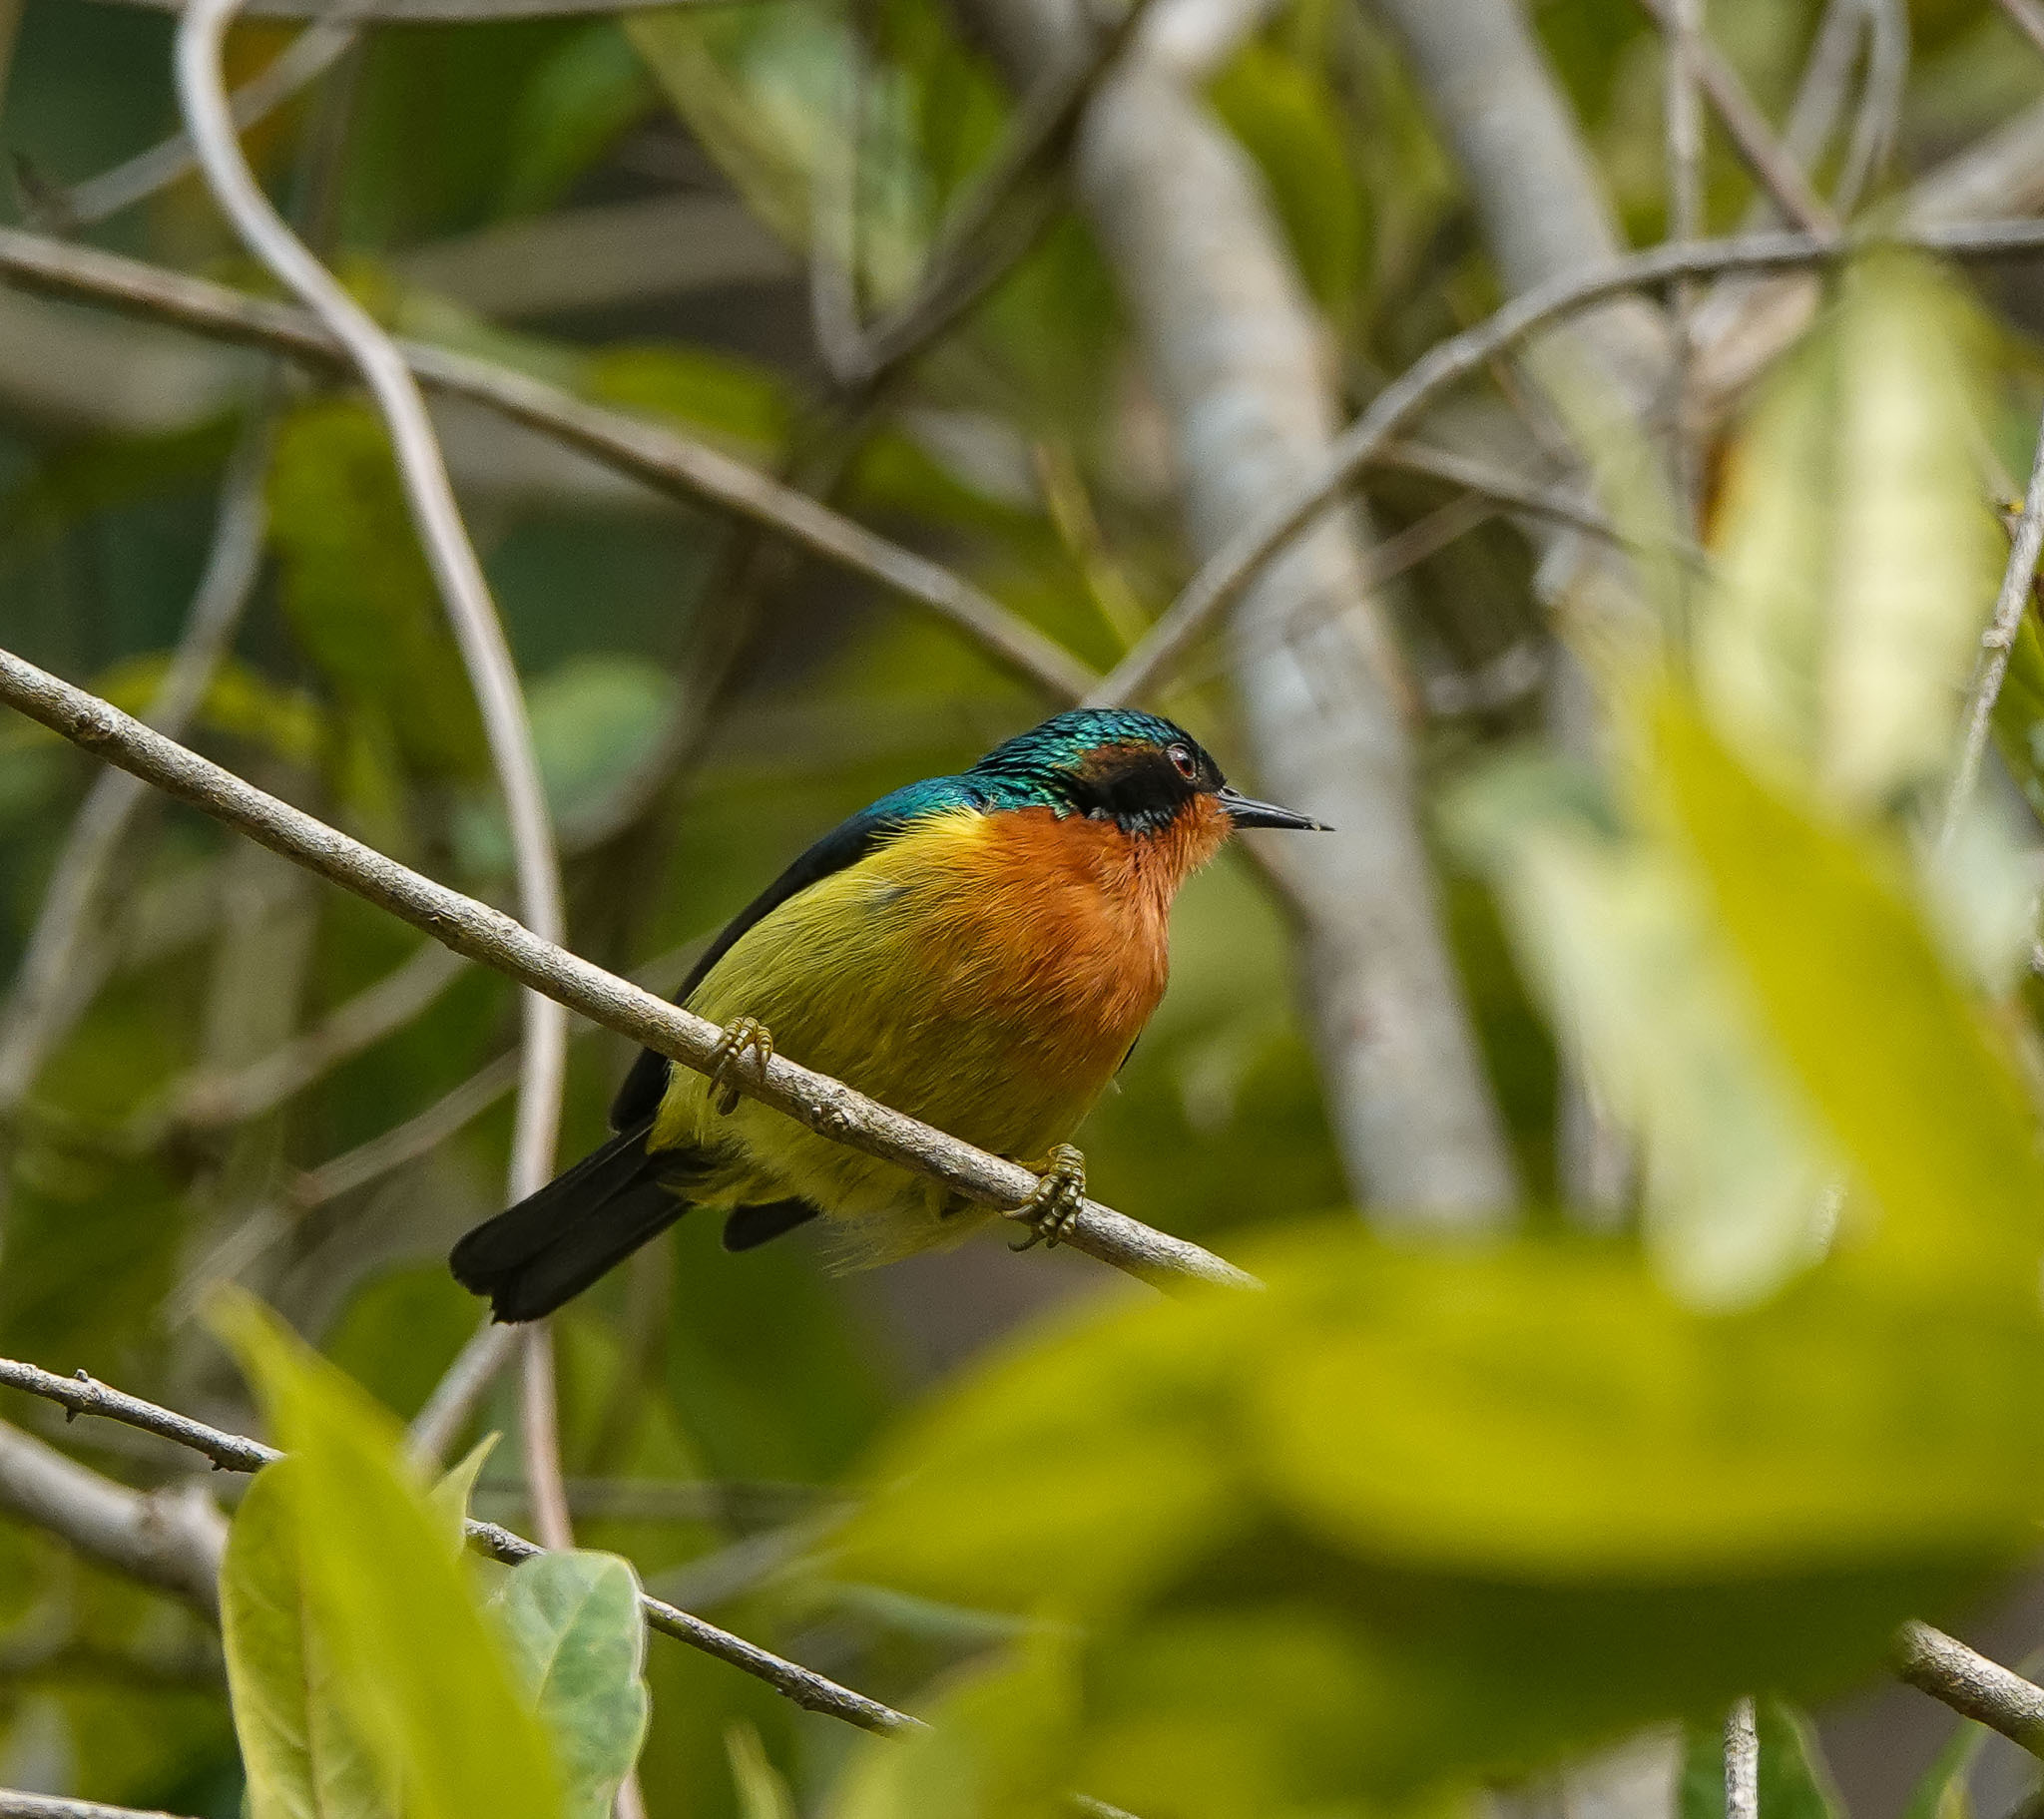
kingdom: Animalia
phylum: Chordata
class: Aves
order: Passeriformes
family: Nectariniidae
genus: Chalcoparia
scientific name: Chalcoparia singalensis
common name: Ruby-cheeked sunbird
